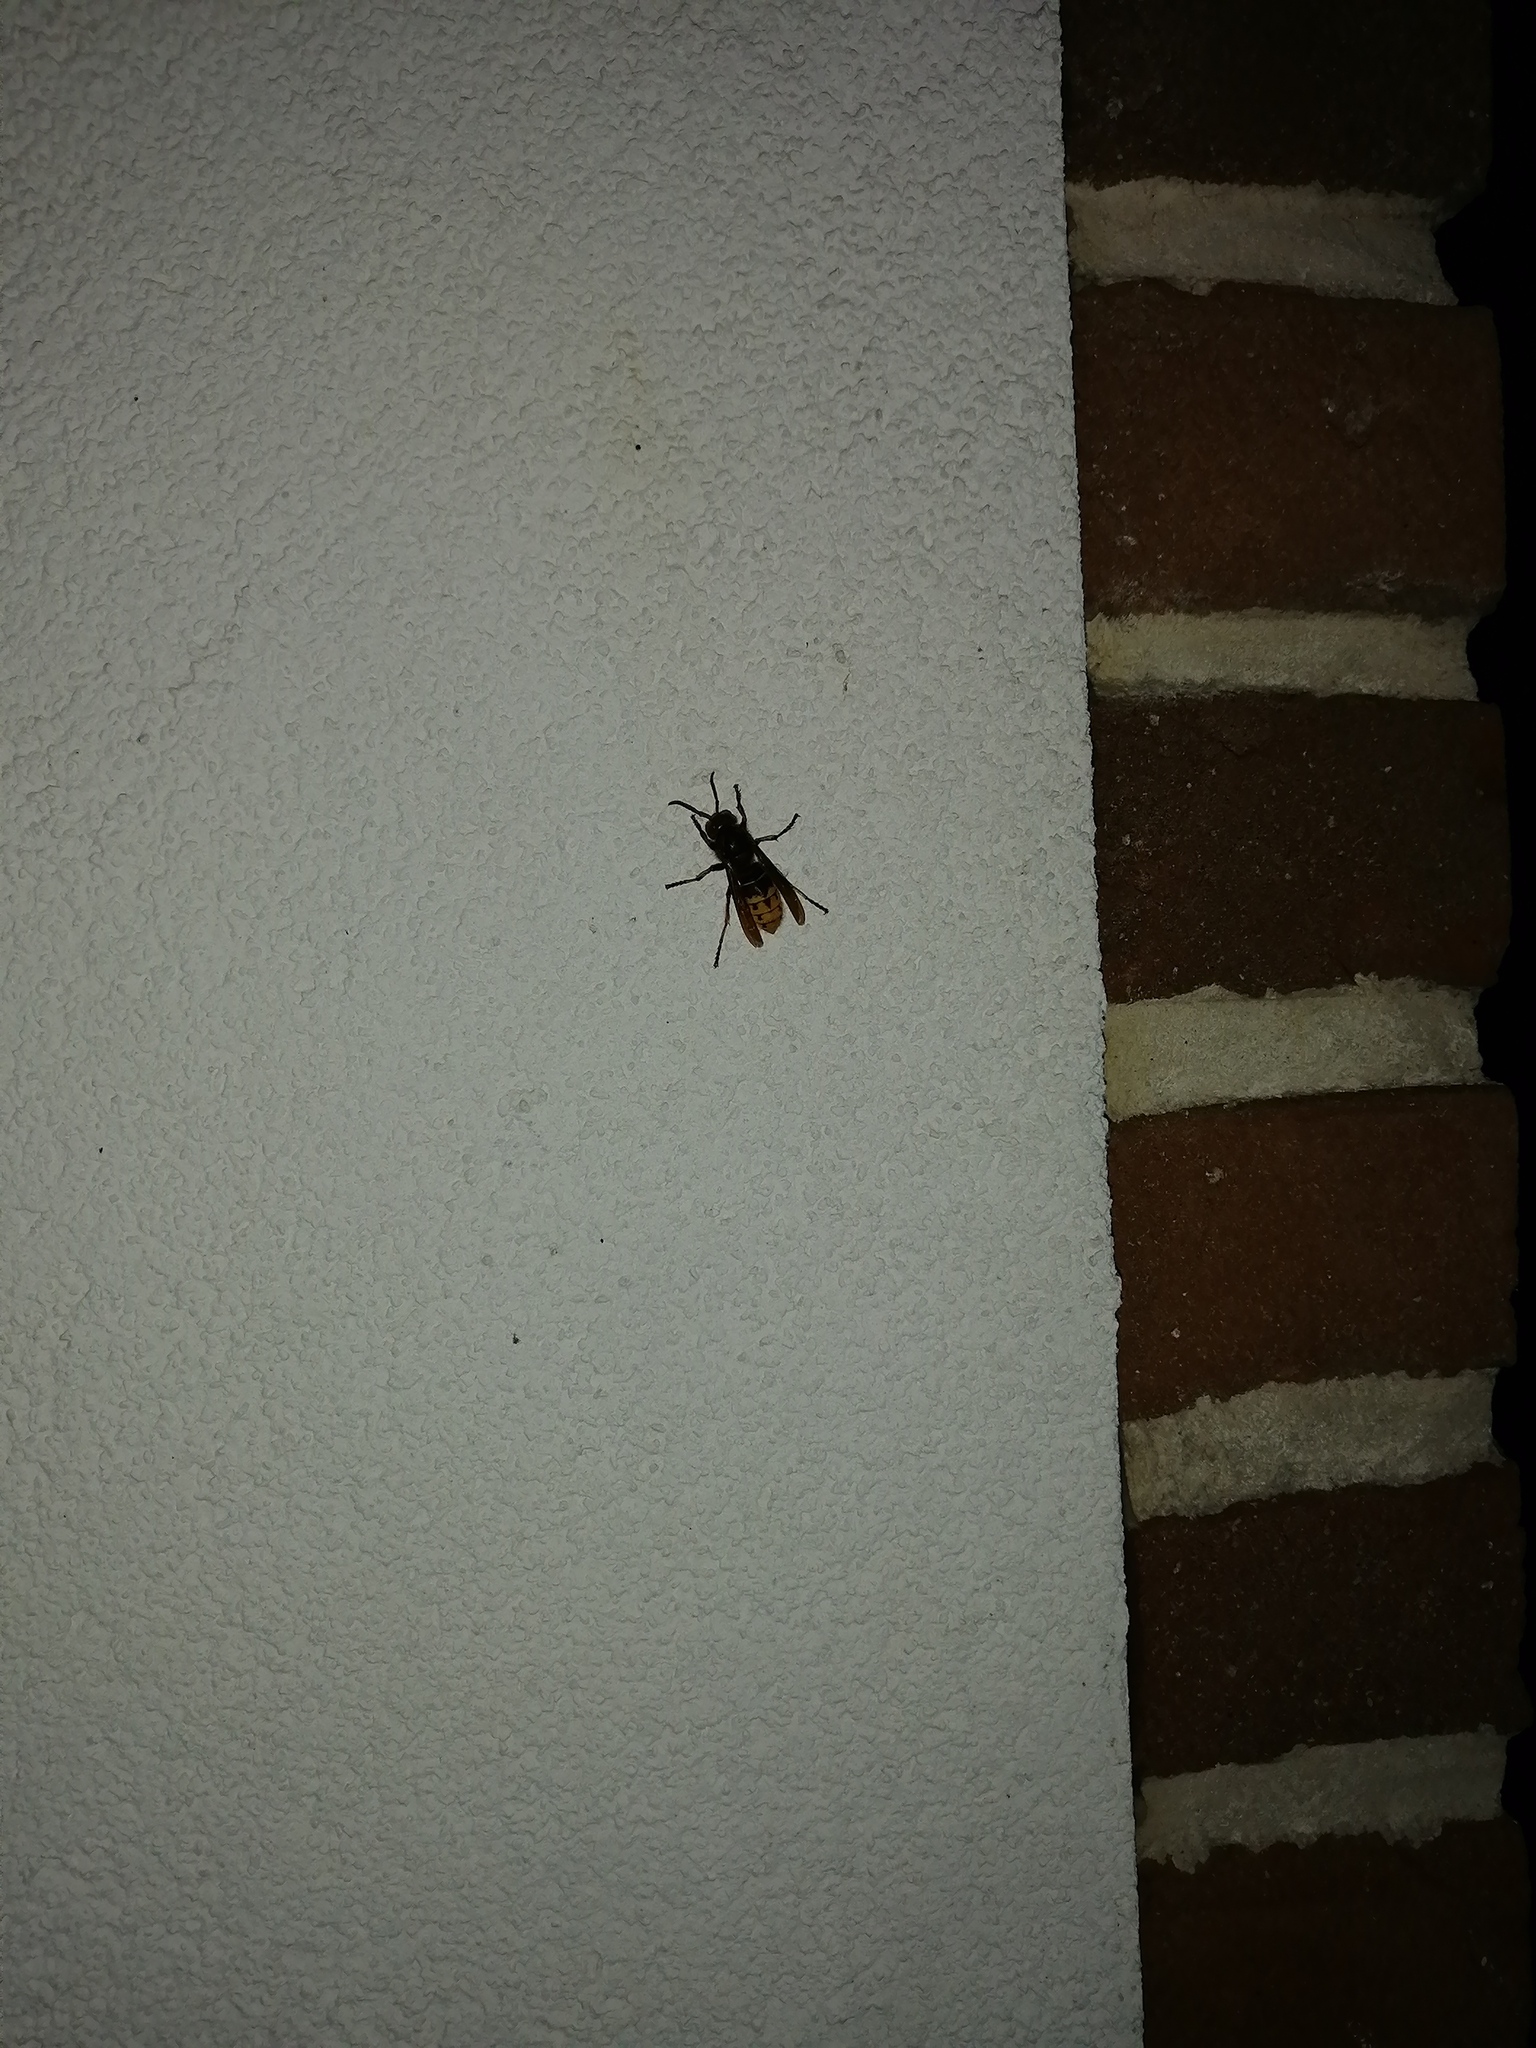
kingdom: Animalia
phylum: Arthropoda
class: Insecta
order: Hymenoptera
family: Vespidae
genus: Vespa
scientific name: Vespa crabro
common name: Hornet
